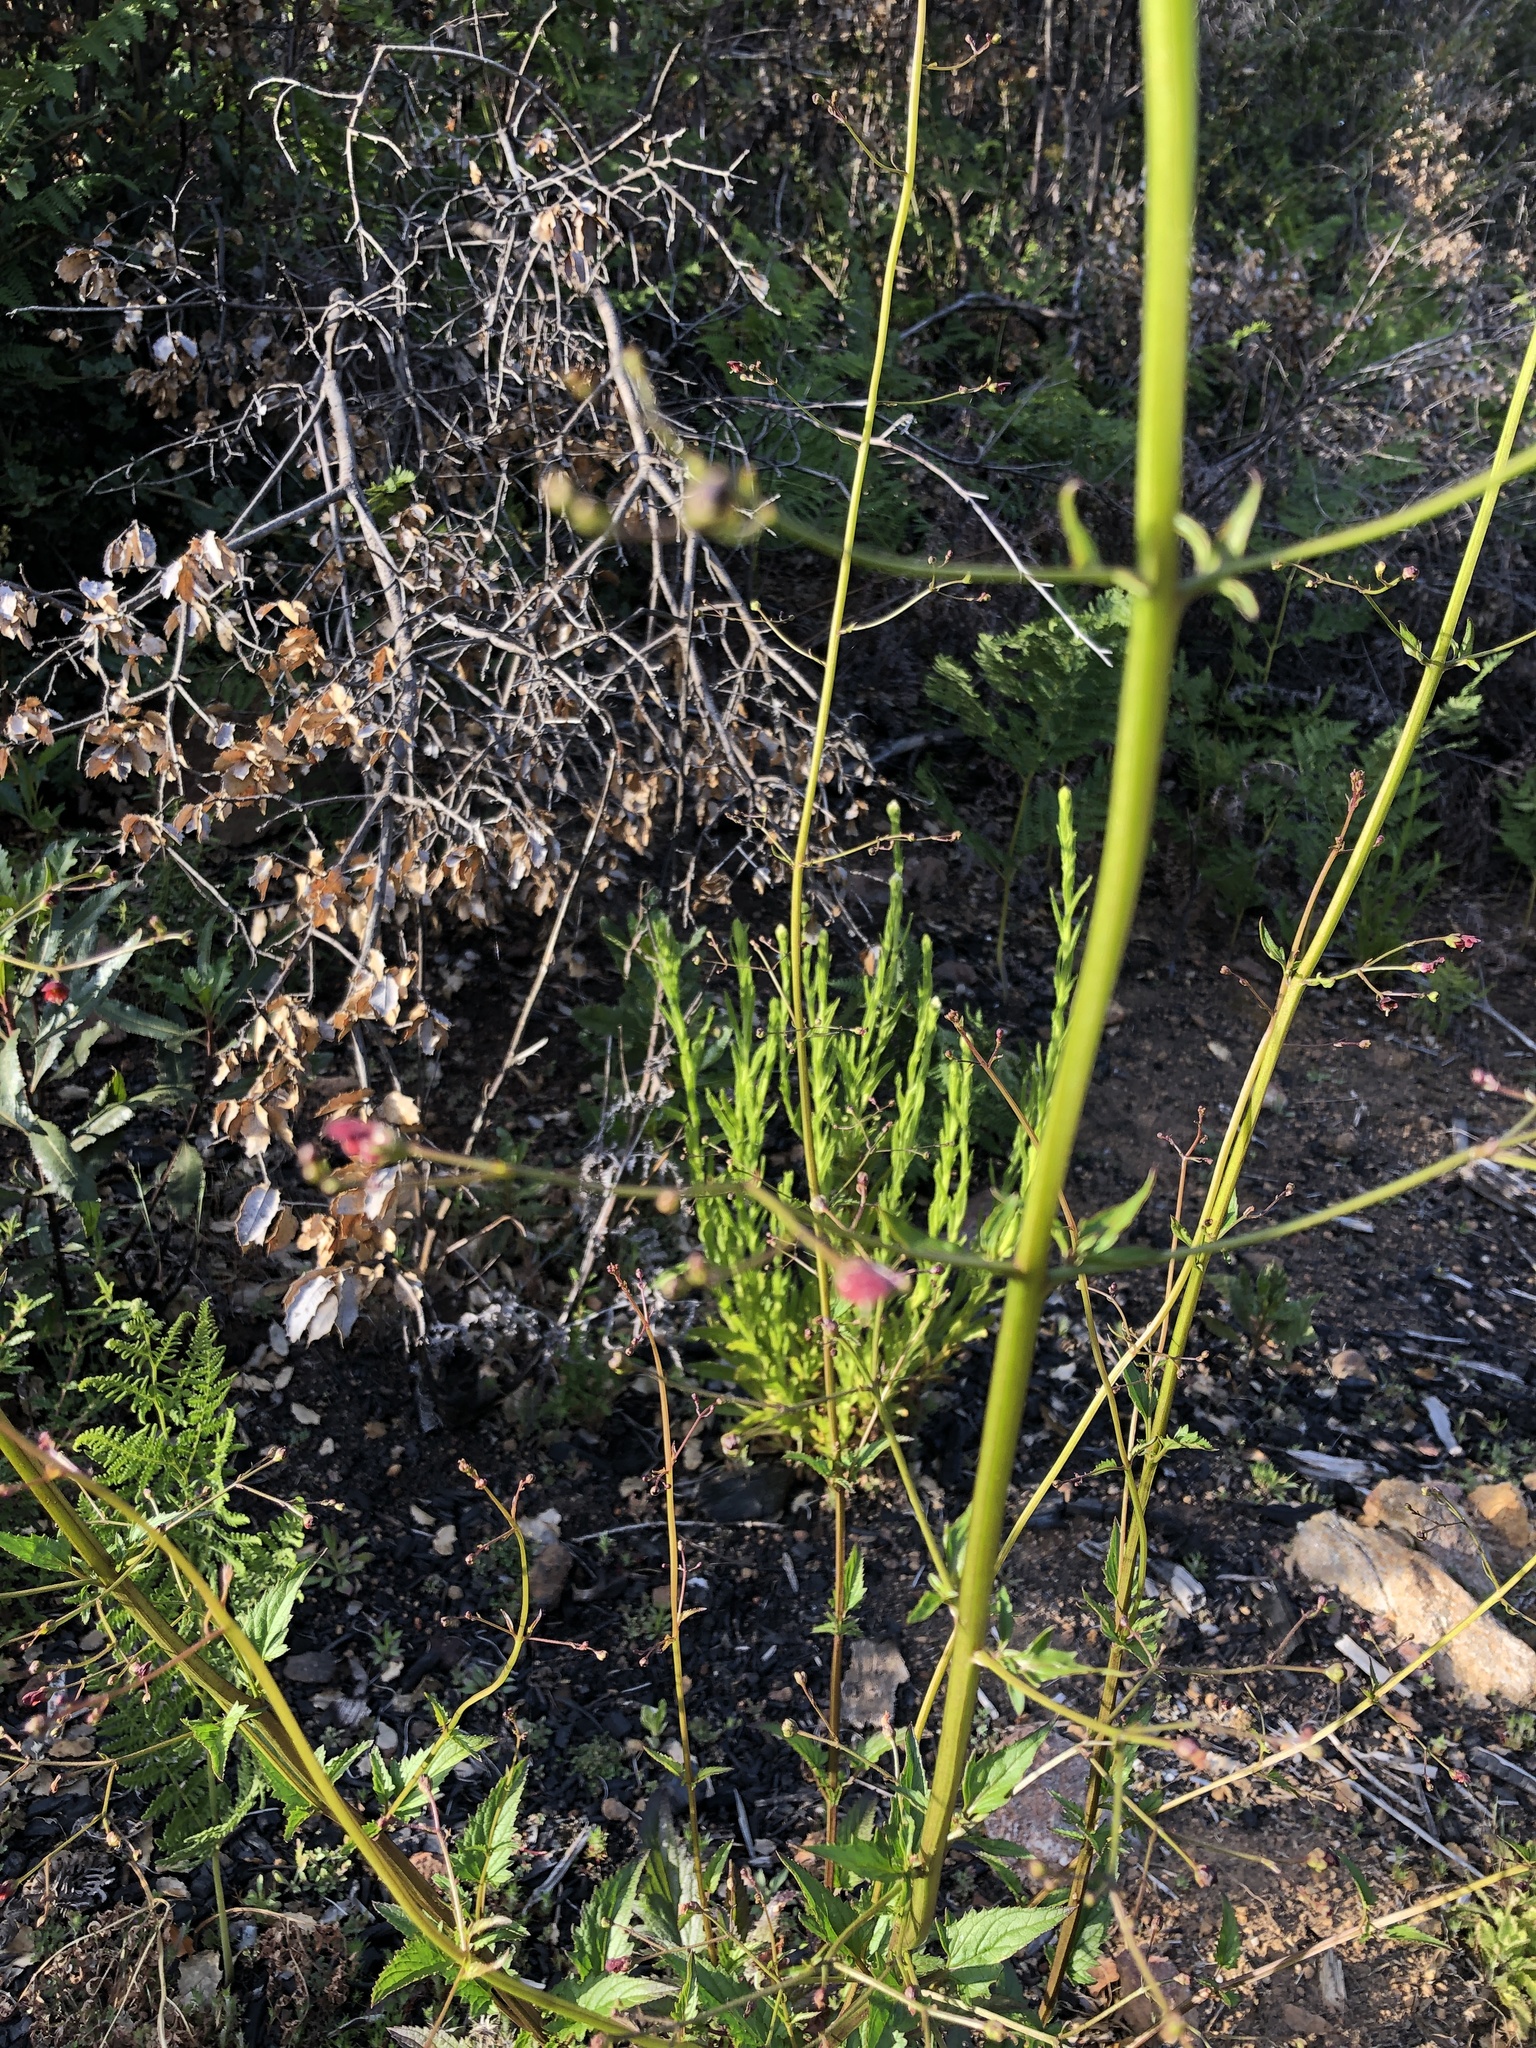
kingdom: Plantae
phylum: Tracheophyta
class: Magnoliopsida
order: Lamiales
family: Scrophulariaceae
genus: Scrophularia
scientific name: Scrophularia californica
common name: California figwort
